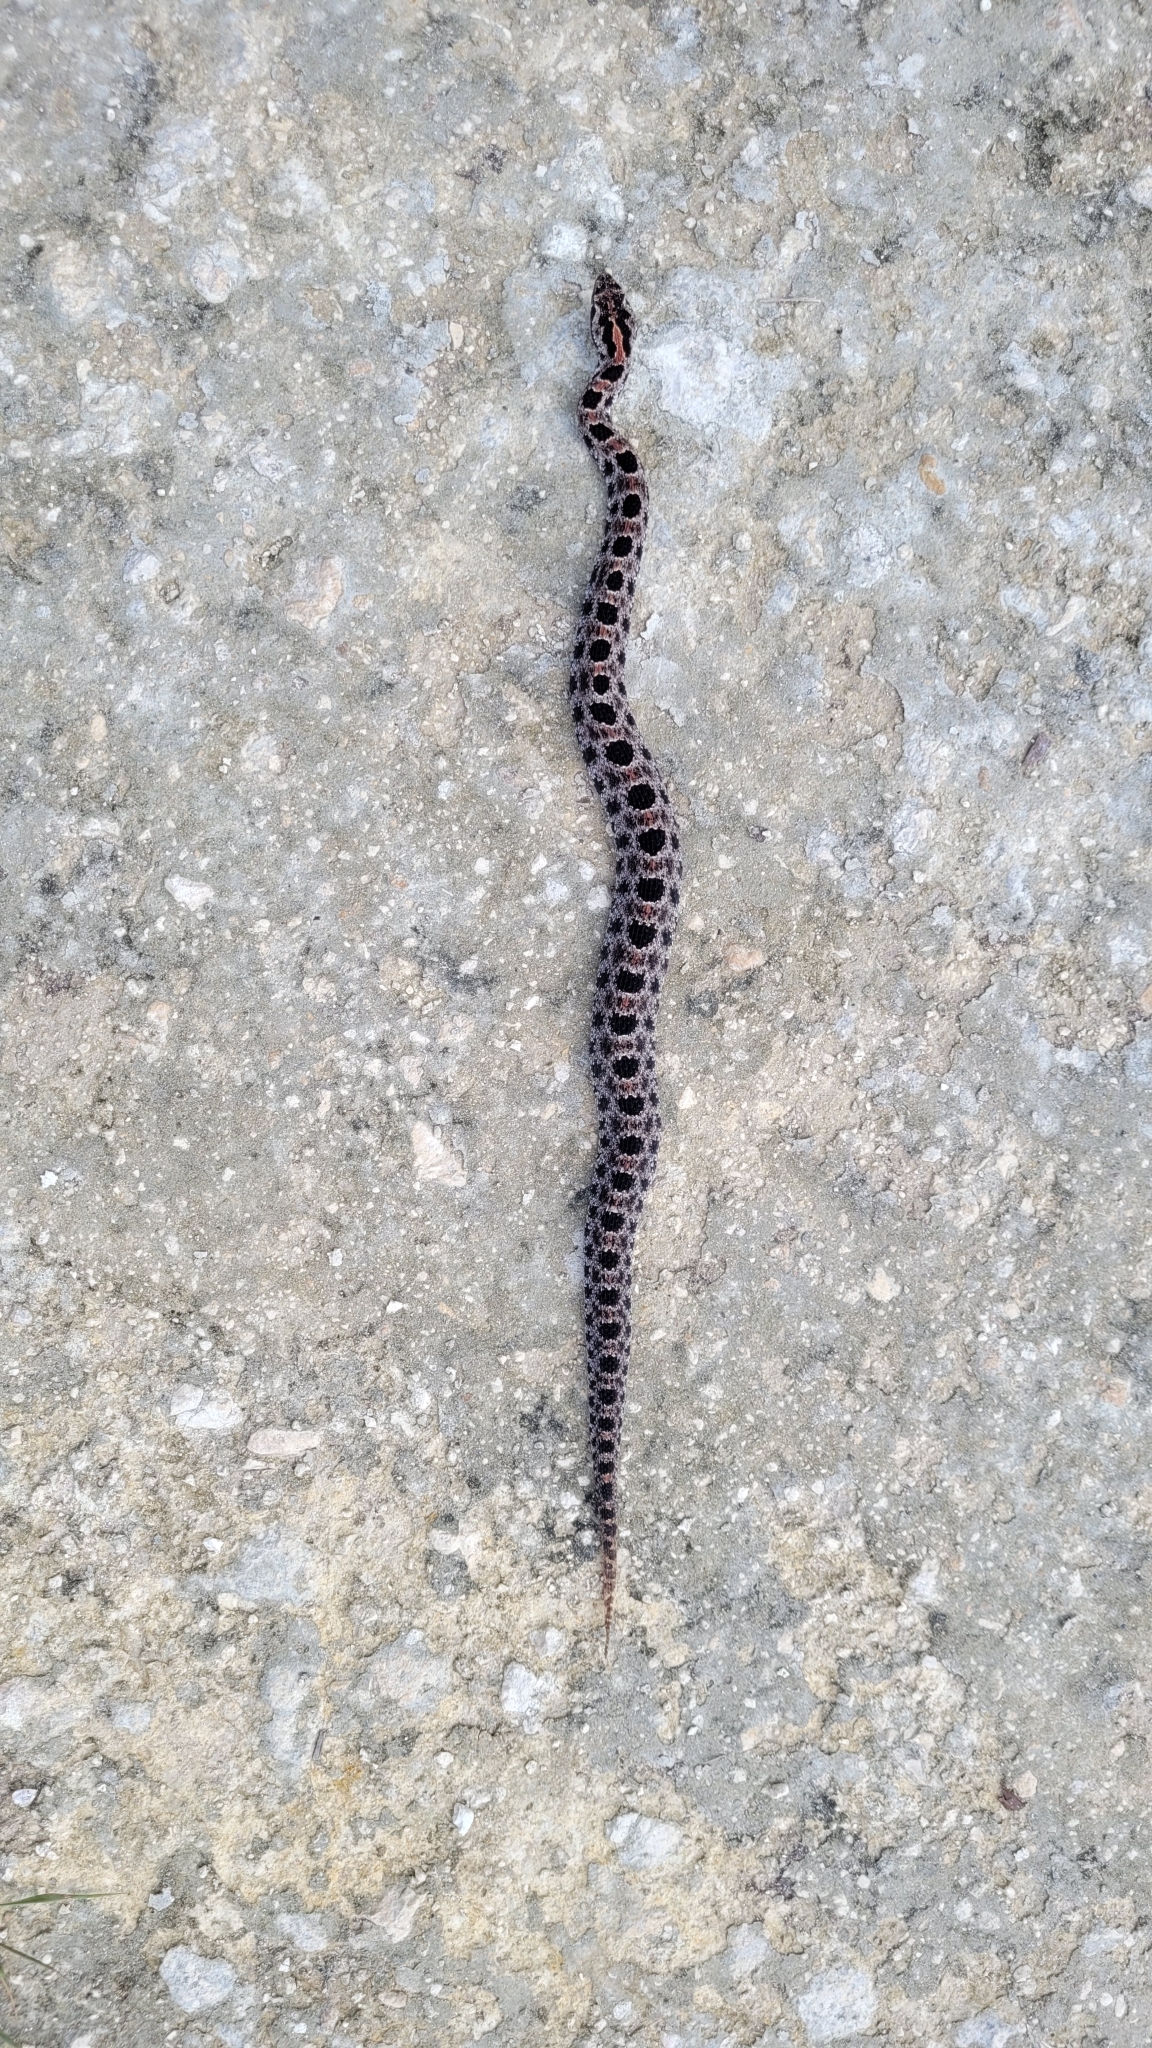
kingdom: Animalia
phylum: Chordata
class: Squamata
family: Viperidae
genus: Sistrurus
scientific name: Sistrurus miliarius
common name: Pygmy rattlesnake
